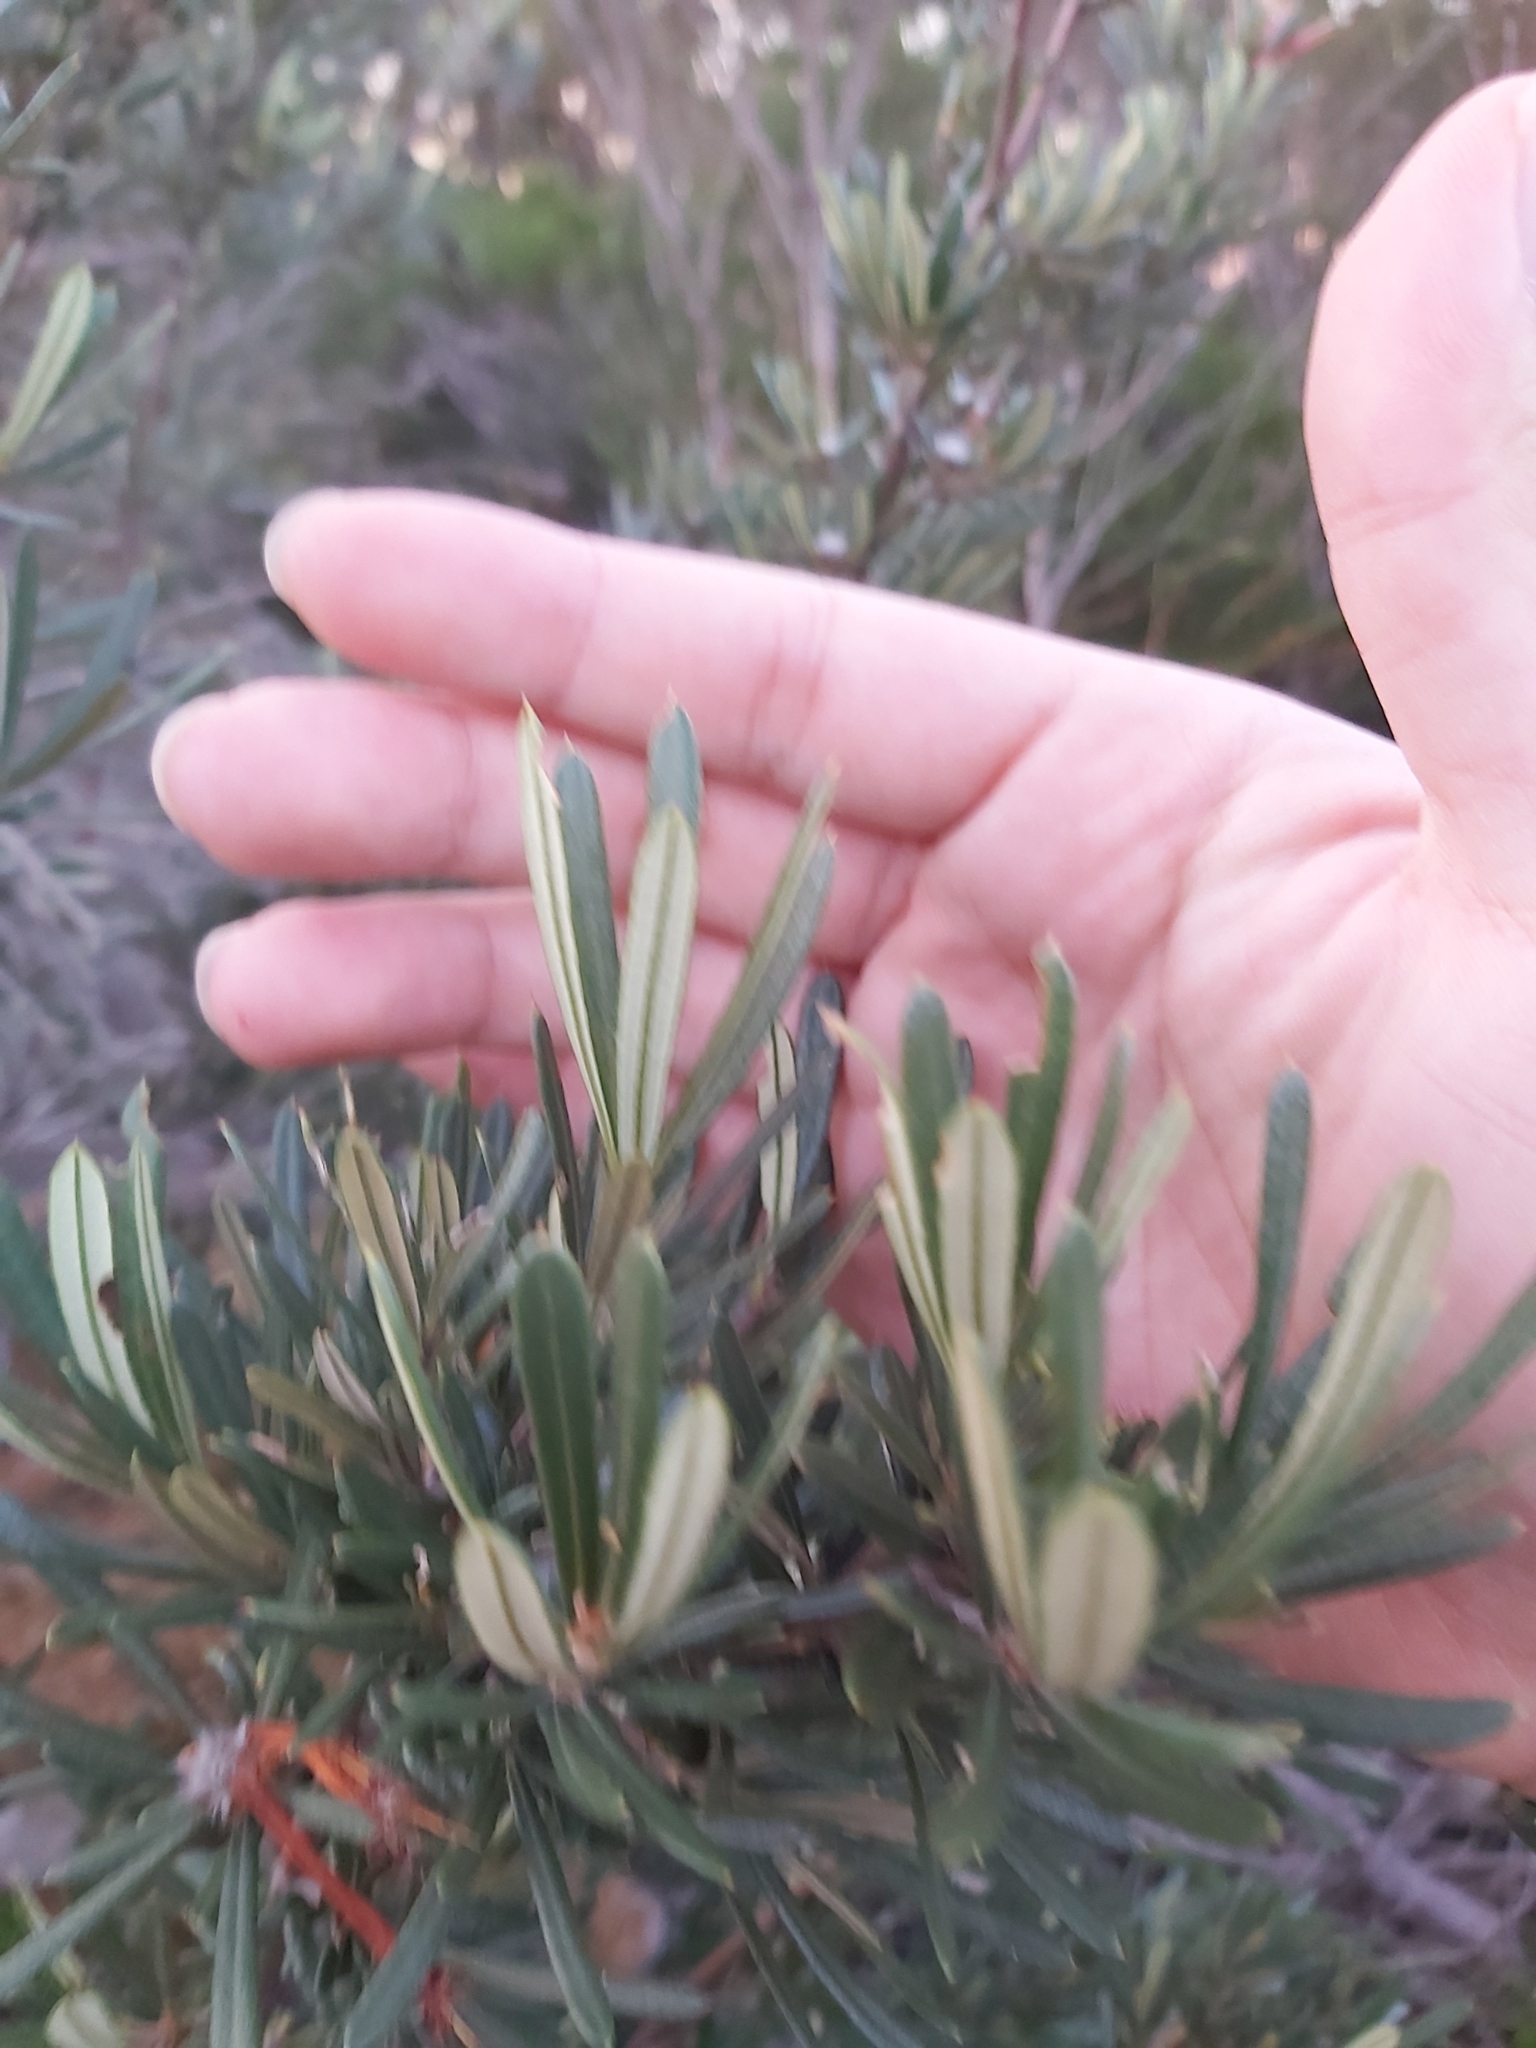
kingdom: Plantae
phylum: Tracheophyta
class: Magnoliopsida
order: Proteales
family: Proteaceae
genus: Lambertia
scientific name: Lambertia formosa
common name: Mountain-devil
